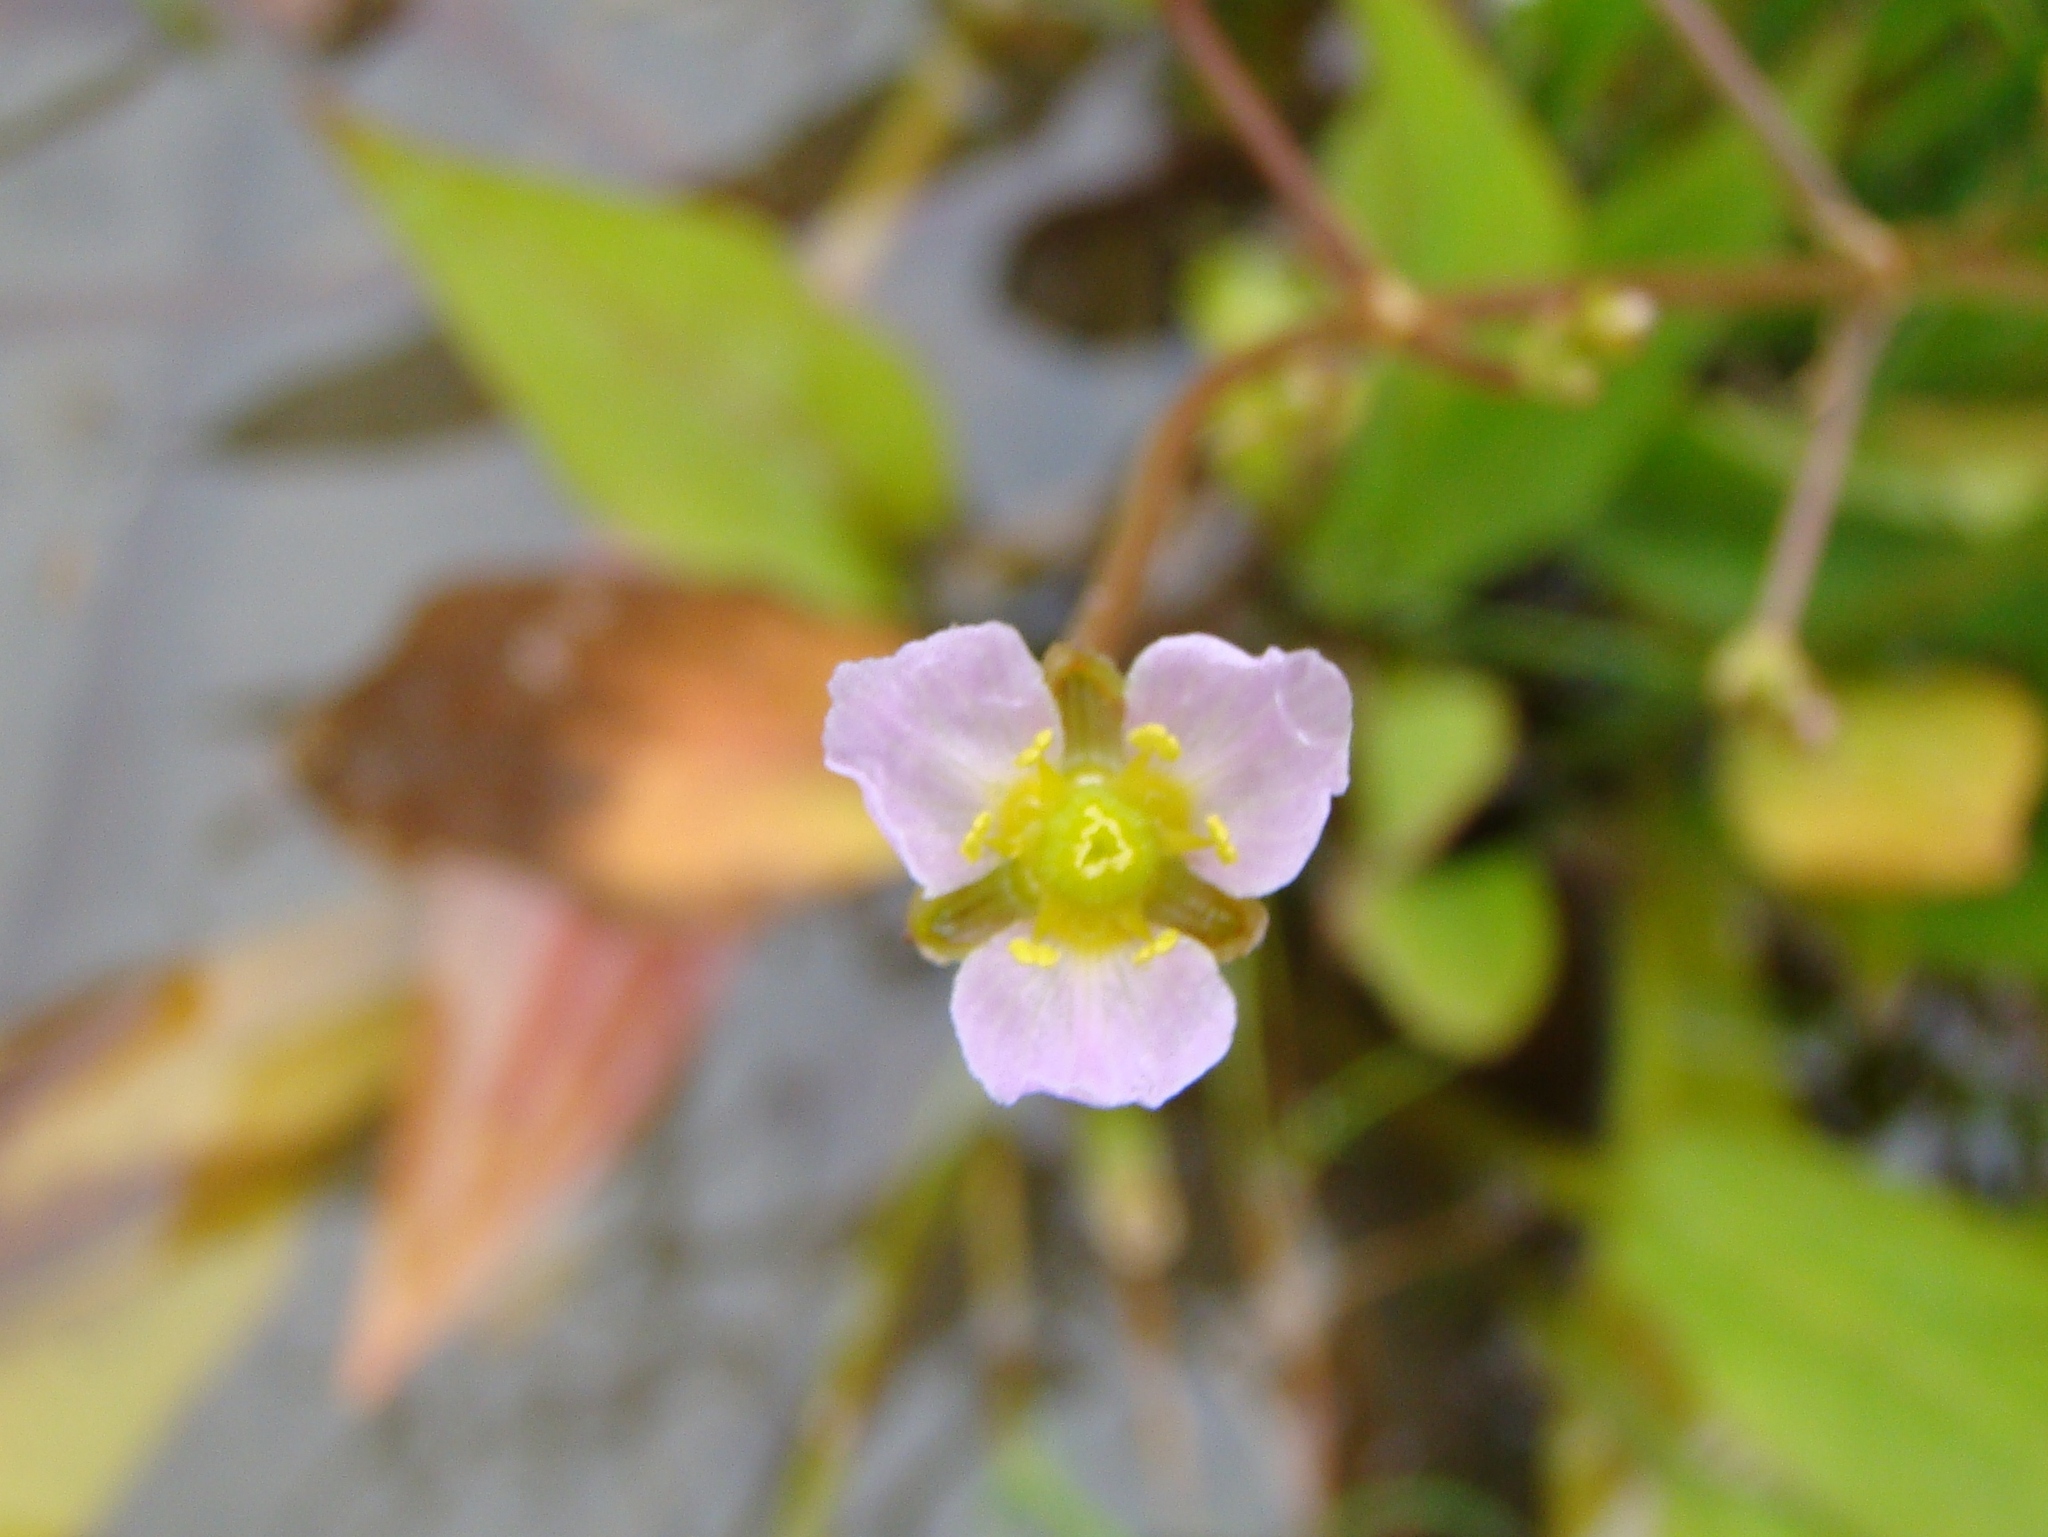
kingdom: Plantae
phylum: Tracheophyta
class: Liliopsida
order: Alismatales
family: Alismataceae
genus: Alisma
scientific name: Alisma plantago-aquatica
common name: Water-plantain
